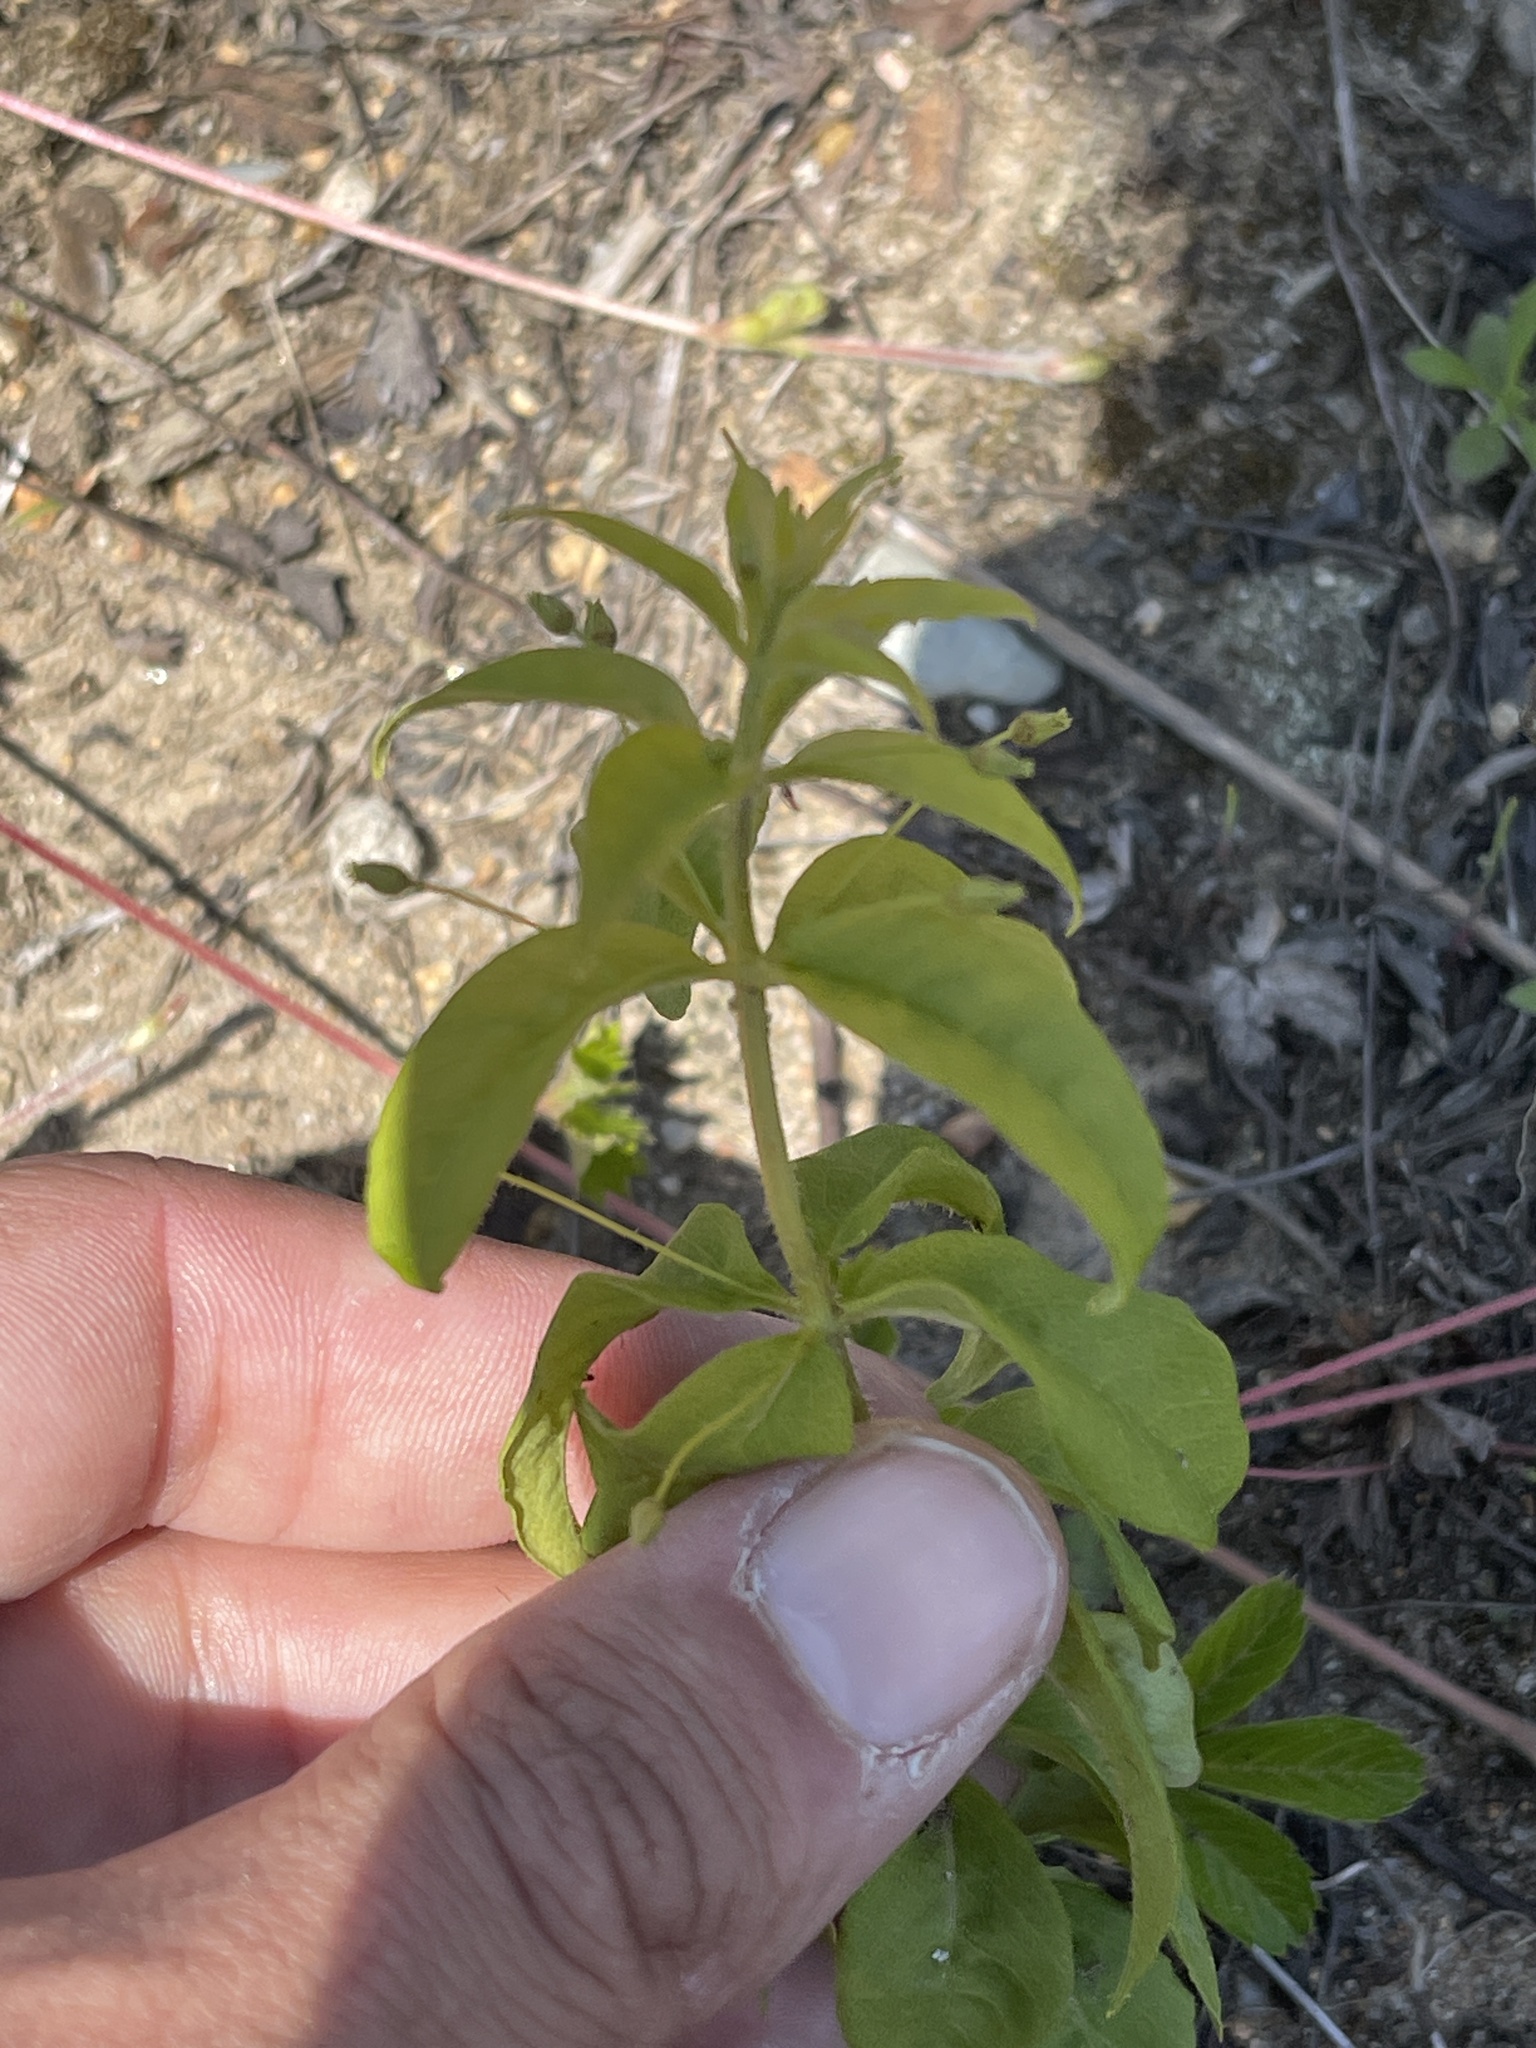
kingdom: Plantae
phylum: Tracheophyta
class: Magnoliopsida
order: Ericales
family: Primulaceae
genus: Lysimachia
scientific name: Lysimachia quadrifolia
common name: Whorled loosestrife
